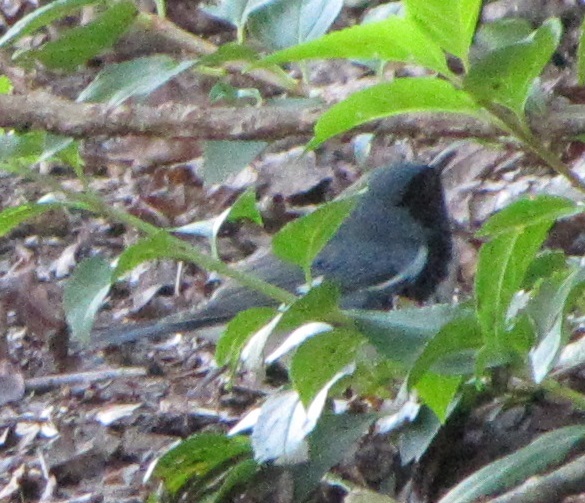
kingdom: Animalia
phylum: Chordata
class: Aves
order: Passeriformes
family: Parulidae
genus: Setophaga
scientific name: Setophaga caerulescens
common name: Black-throated blue warbler
